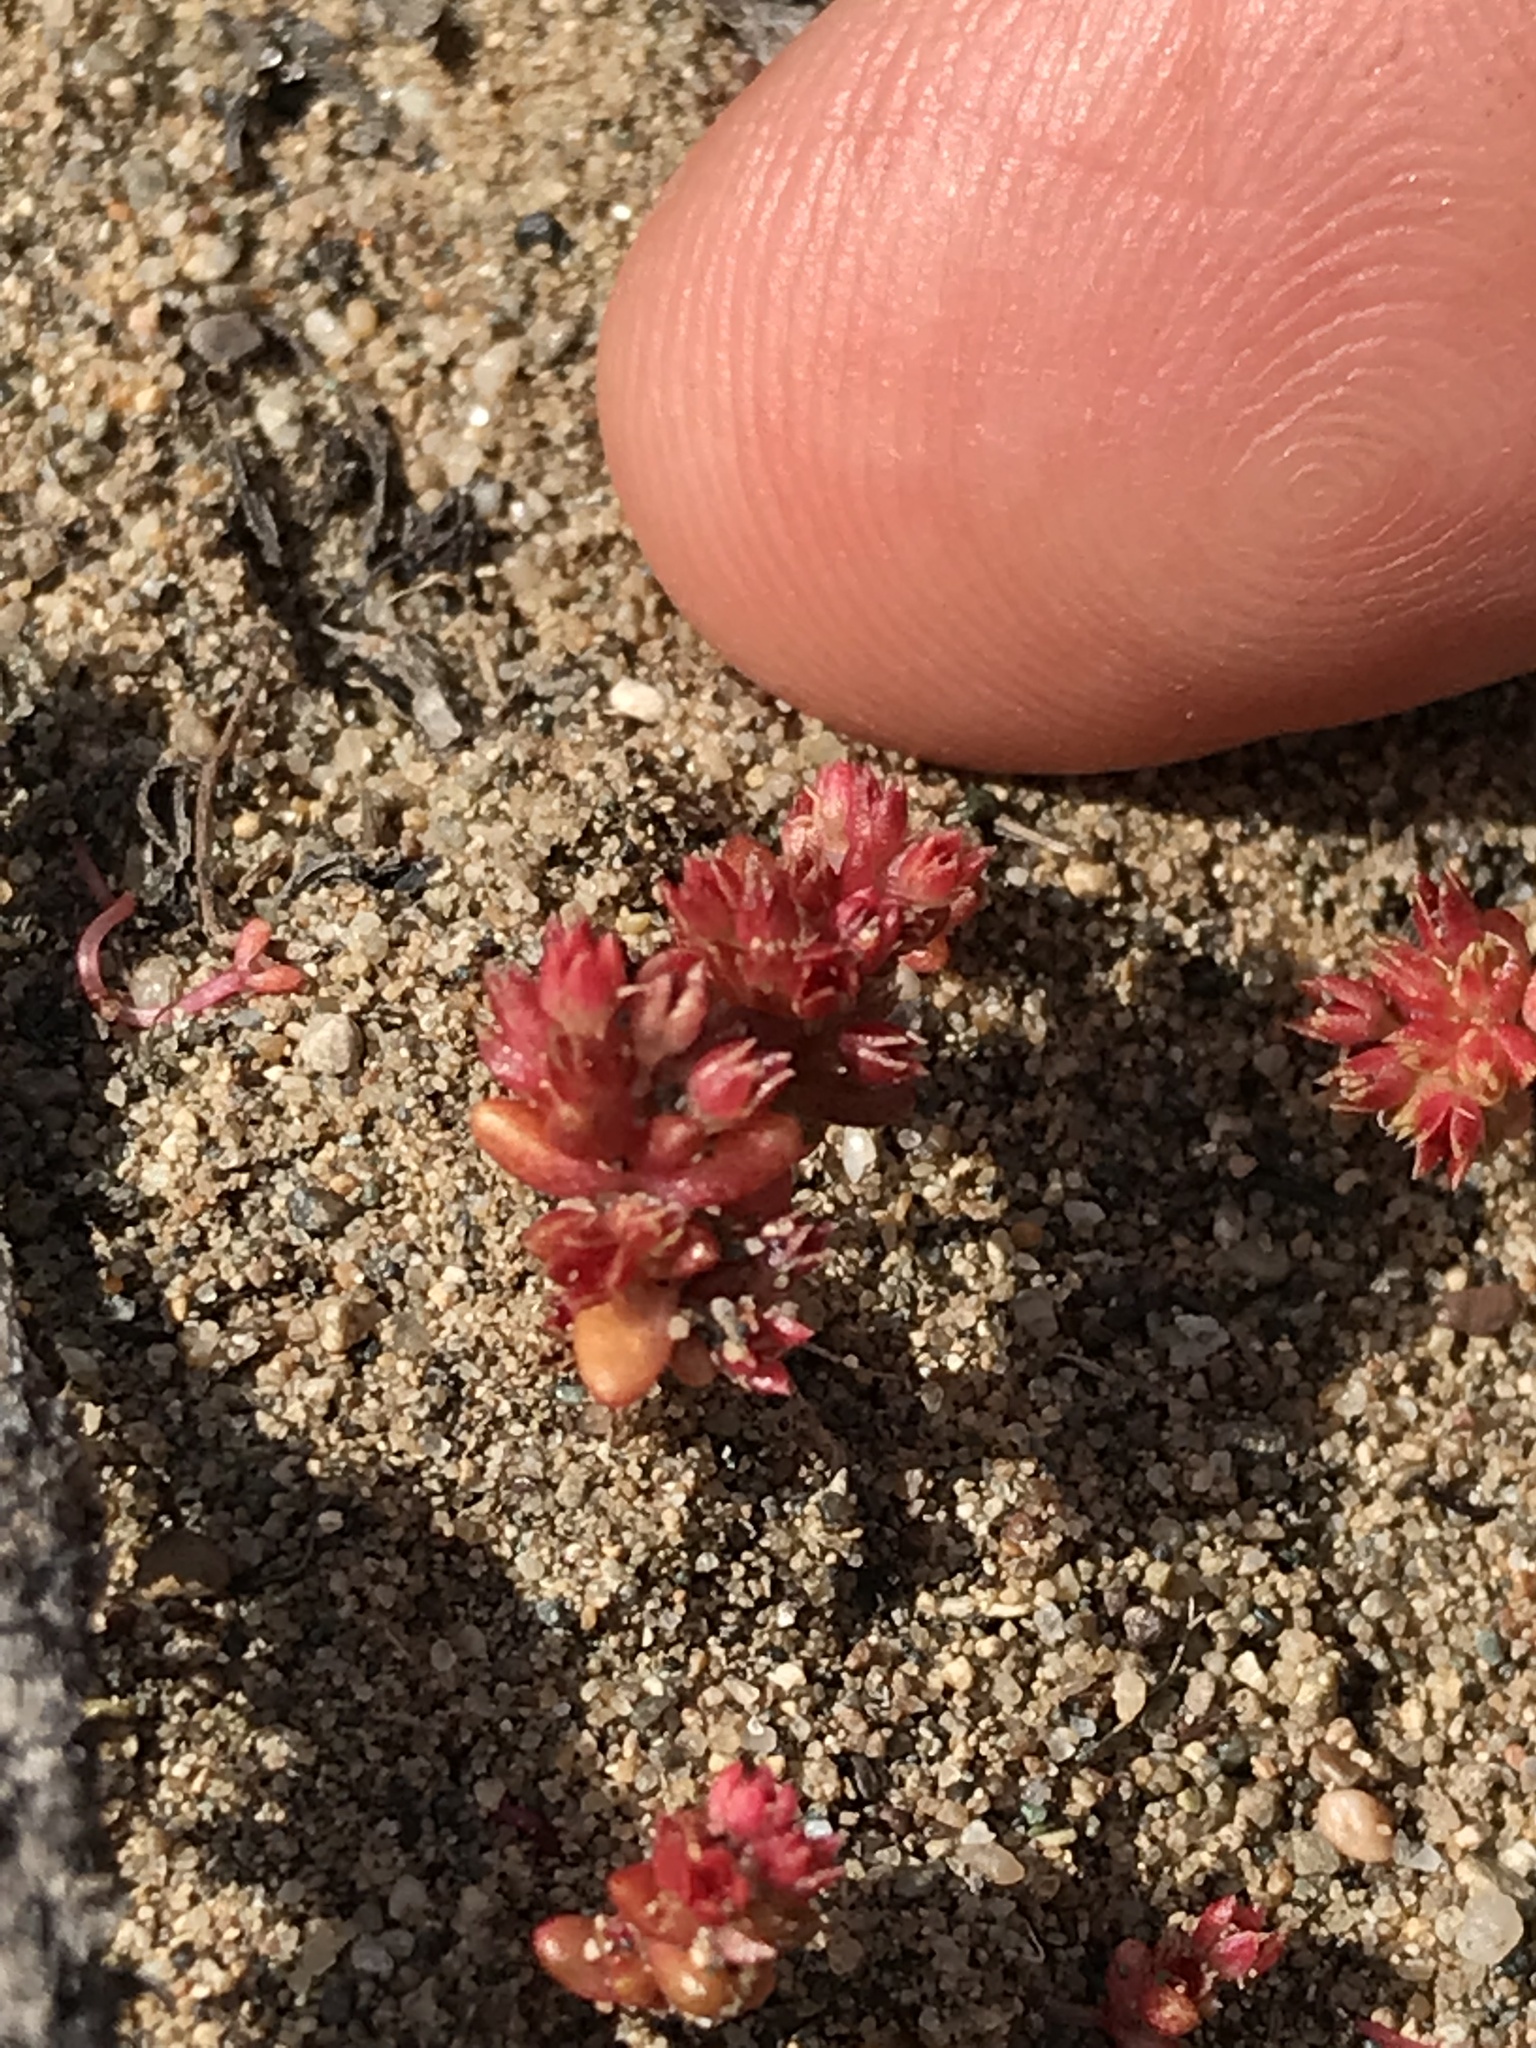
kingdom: Plantae
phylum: Tracheophyta
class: Magnoliopsida
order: Saxifragales
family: Crassulaceae
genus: Crassula
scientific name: Crassula connata
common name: Erect pygmyweed
